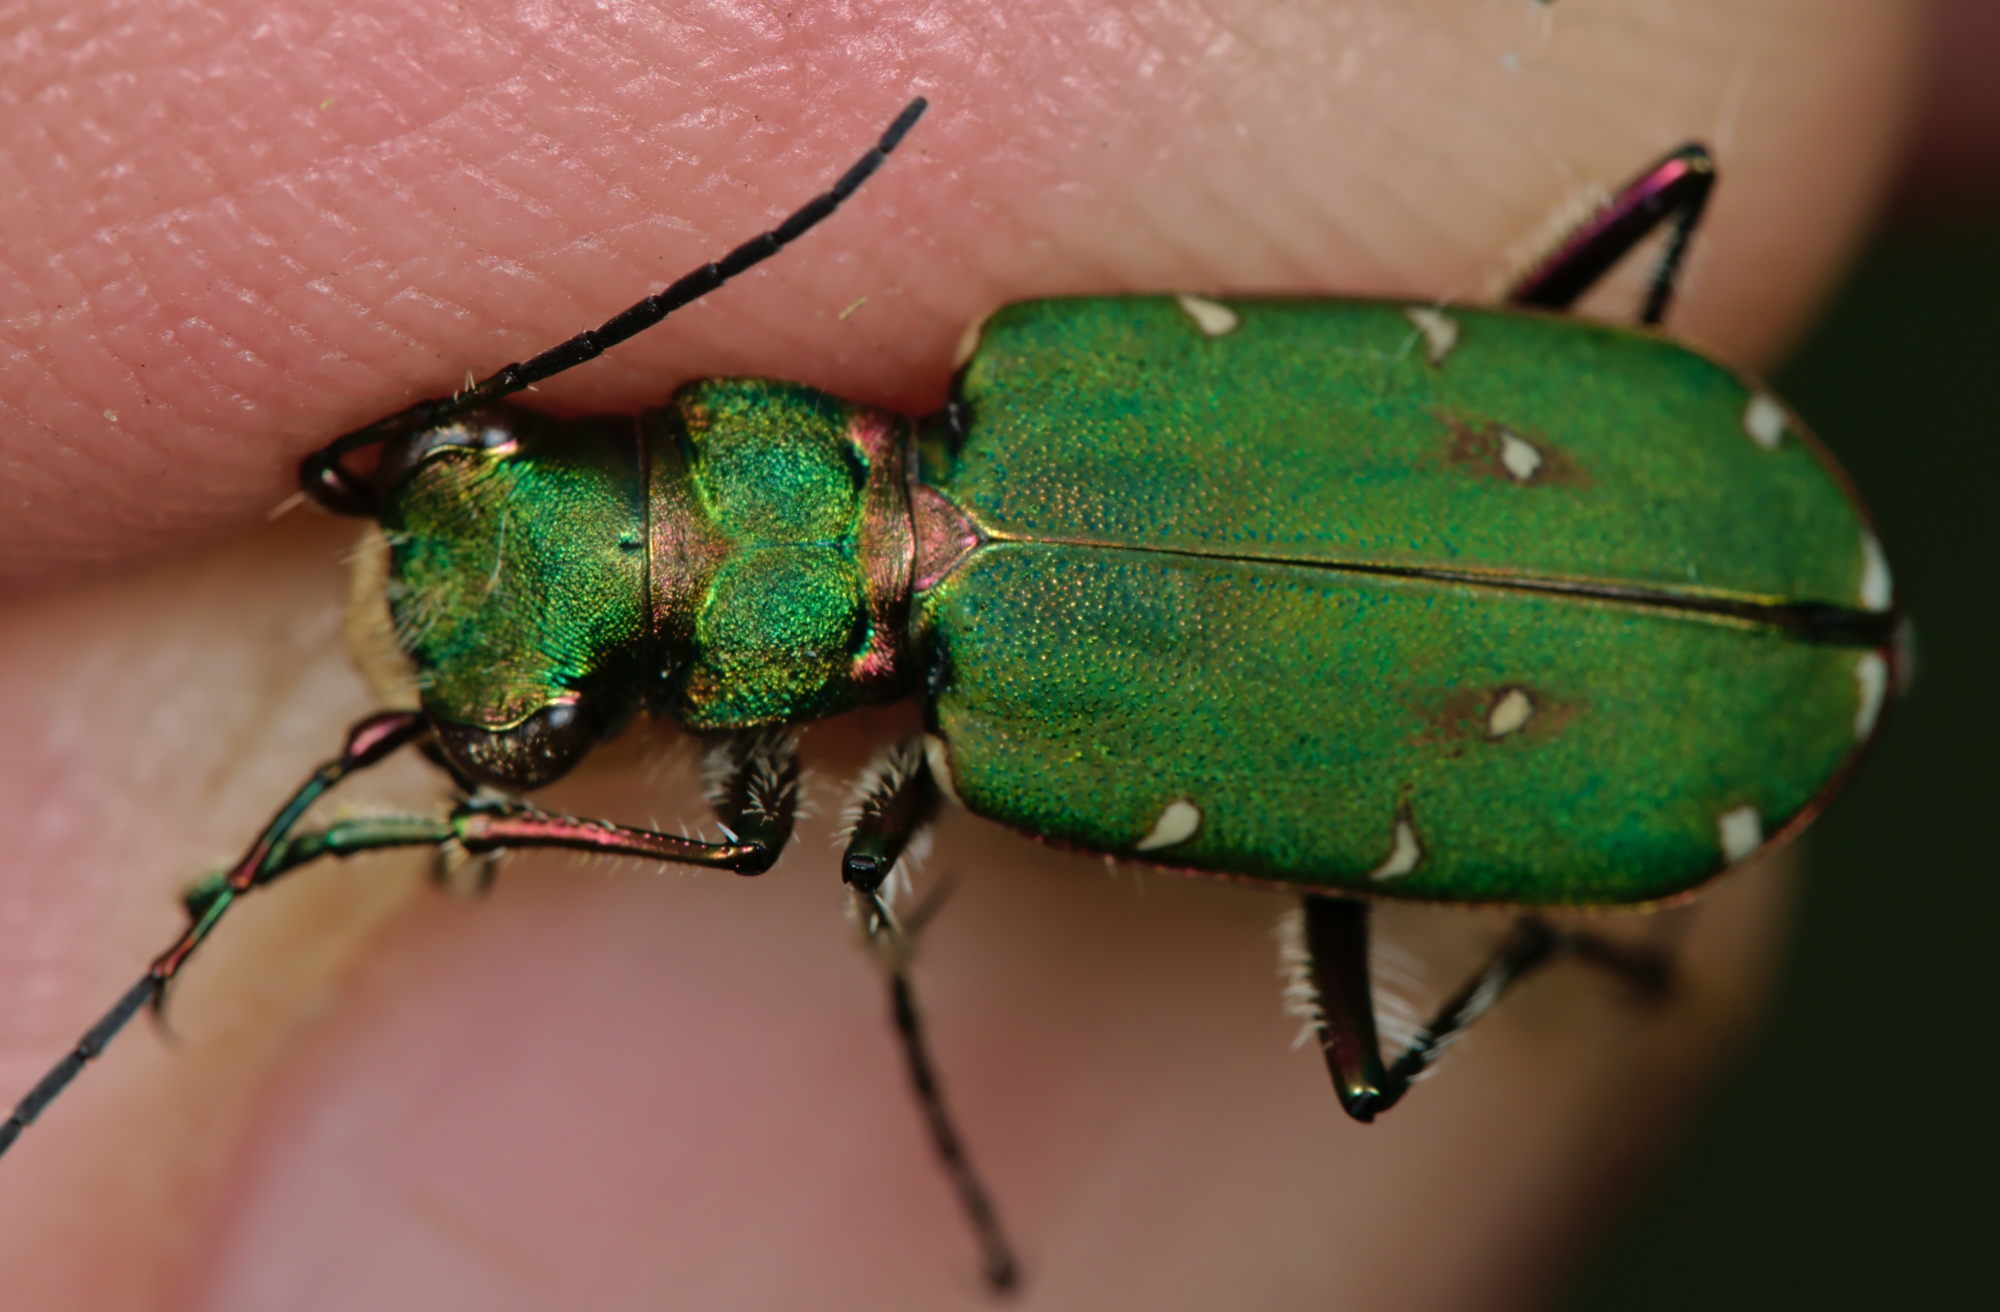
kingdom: Animalia
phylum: Arthropoda
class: Insecta
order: Coleoptera
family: Carabidae
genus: Cicindela
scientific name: Cicindela campestris
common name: Common tiger beetle
